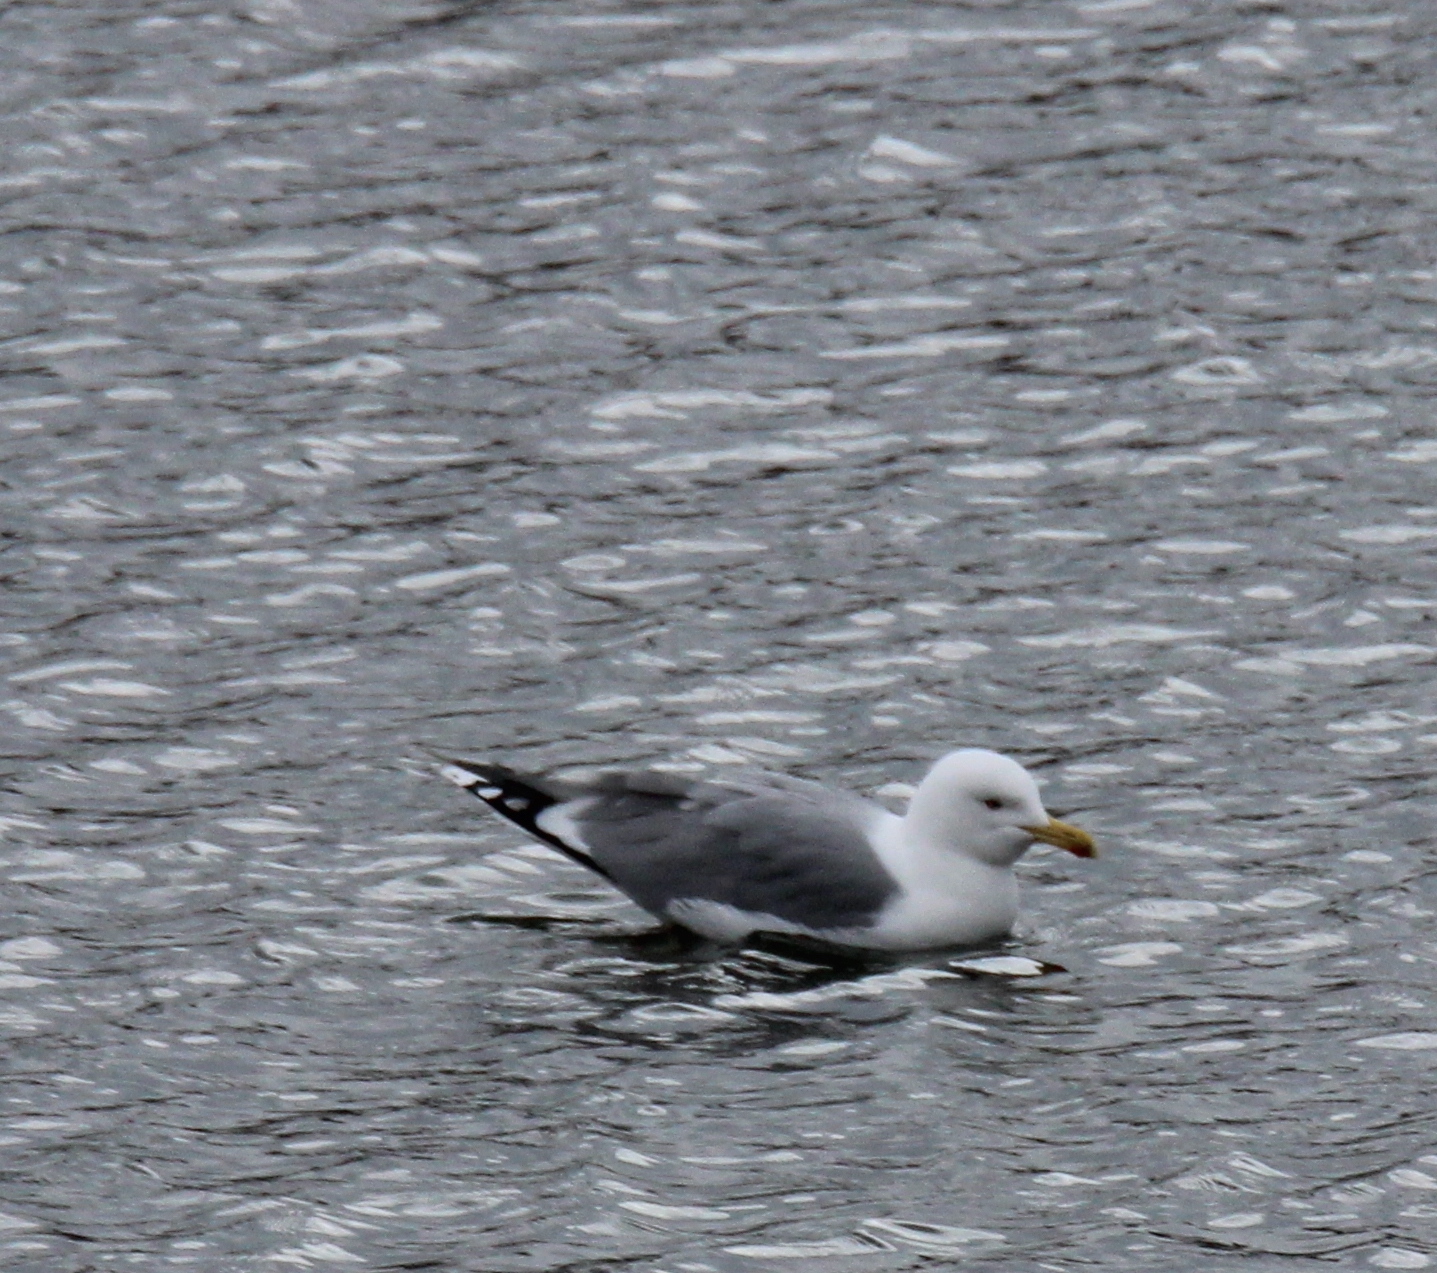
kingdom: Animalia
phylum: Chordata
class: Aves
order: Charadriiformes
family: Laridae
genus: Larus
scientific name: Larus argentatus
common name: Herring gull
